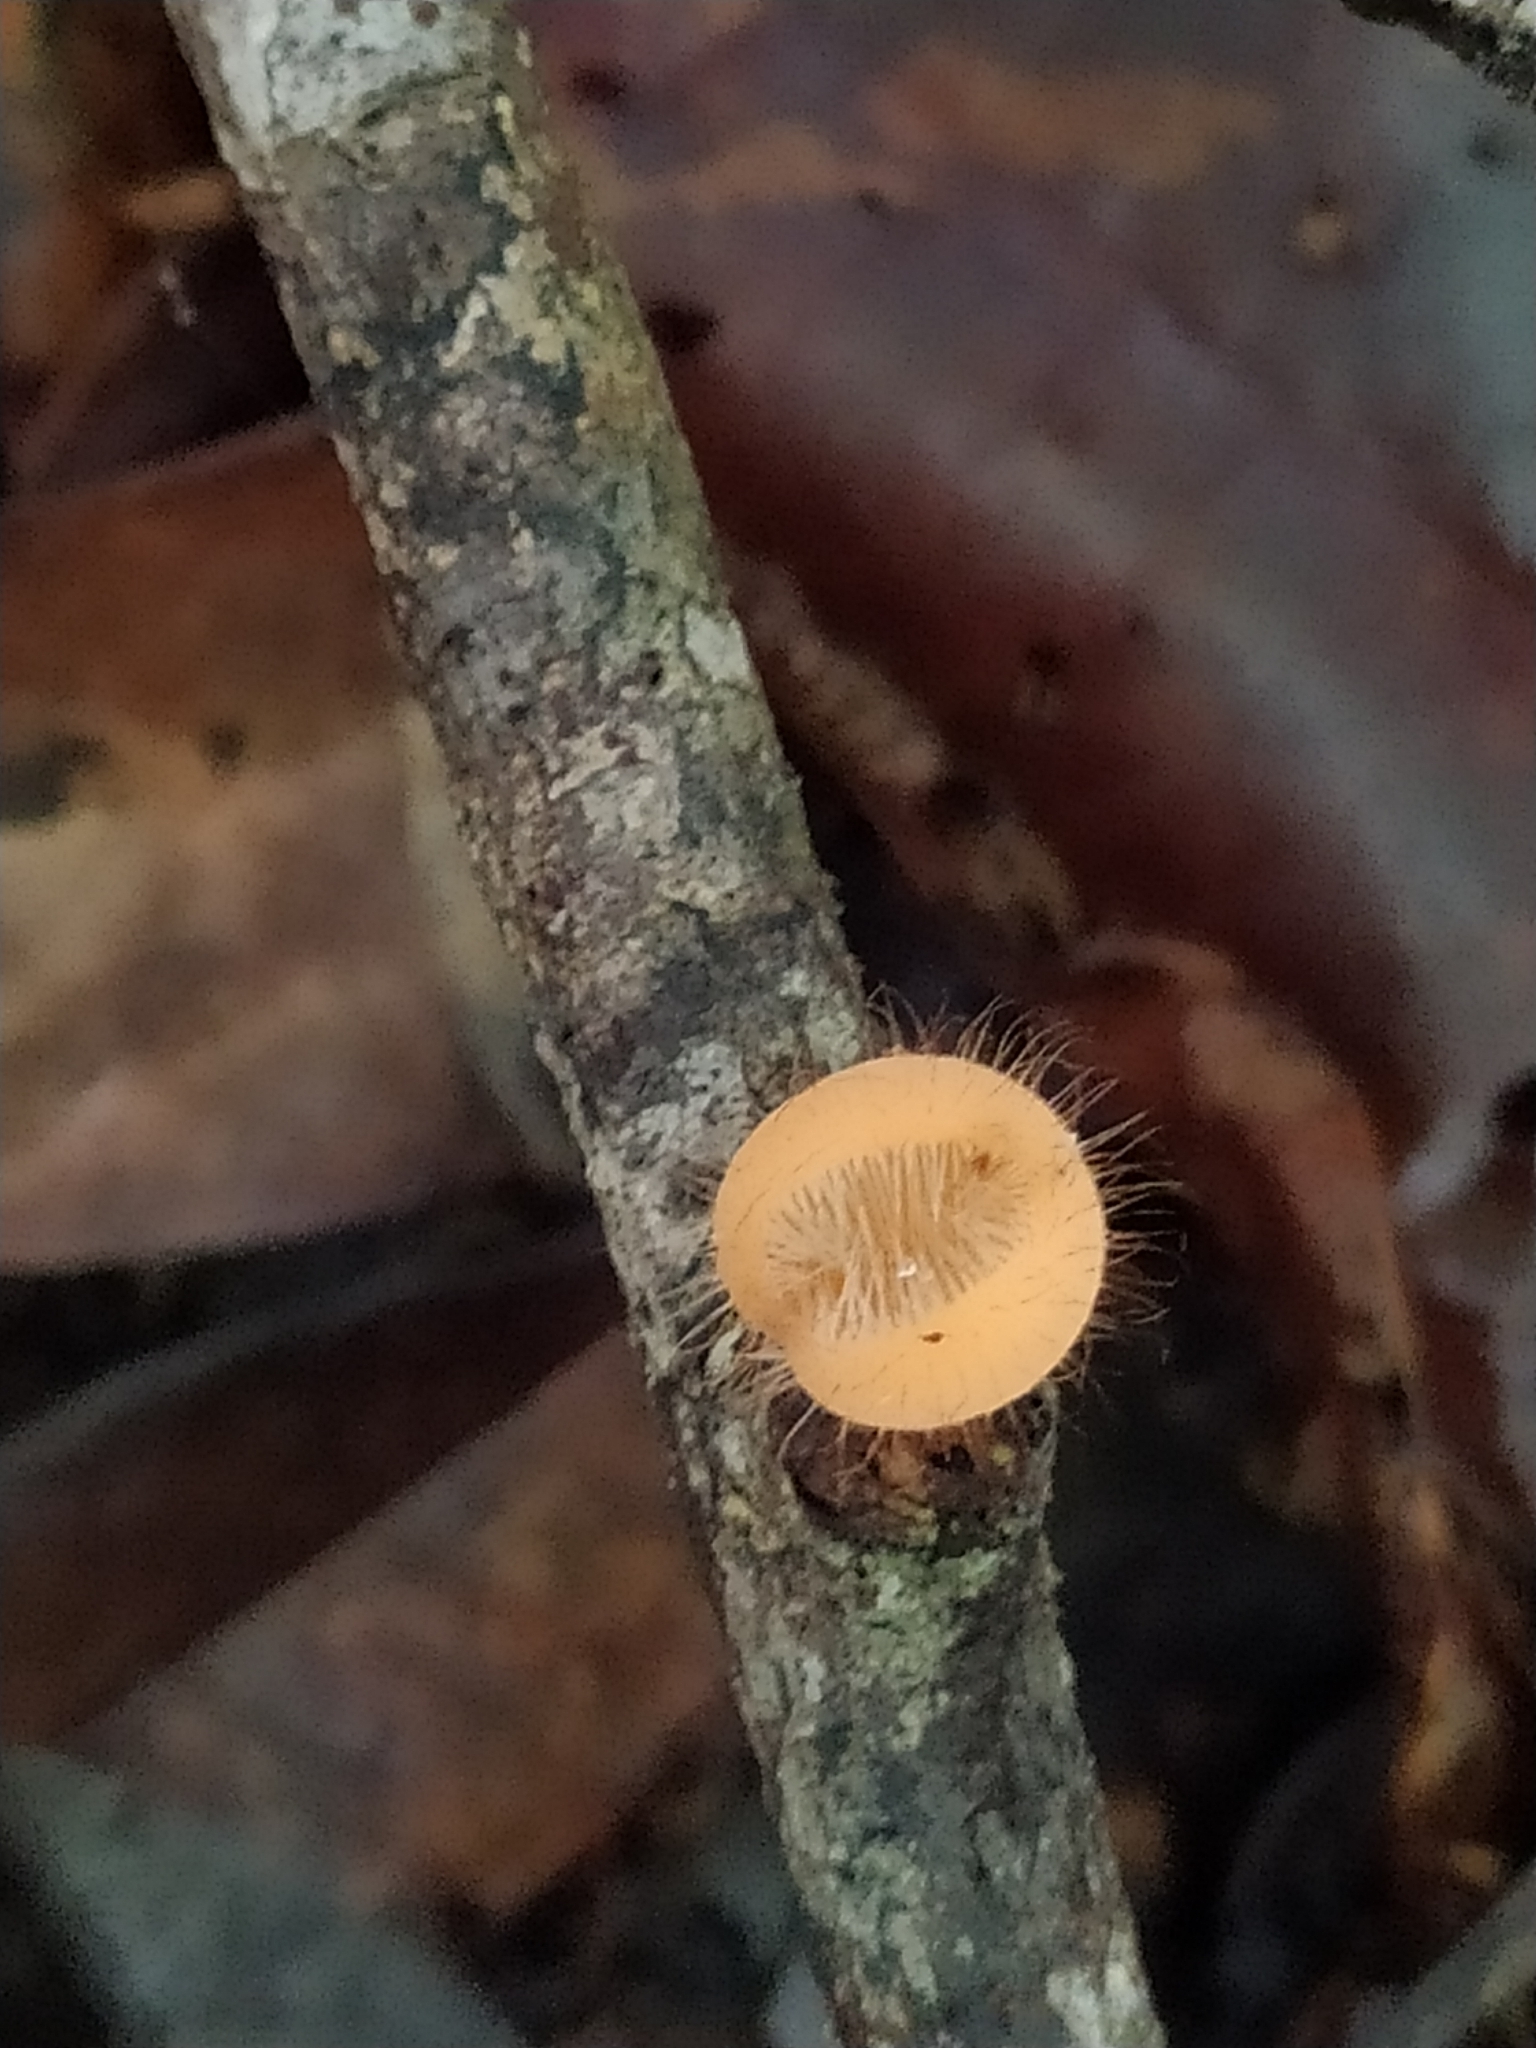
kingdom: Fungi
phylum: Ascomycota
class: Pezizomycetes
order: Pezizales
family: Sarcoscyphaceae
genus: Cookeina
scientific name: Cookeina tricholoma
